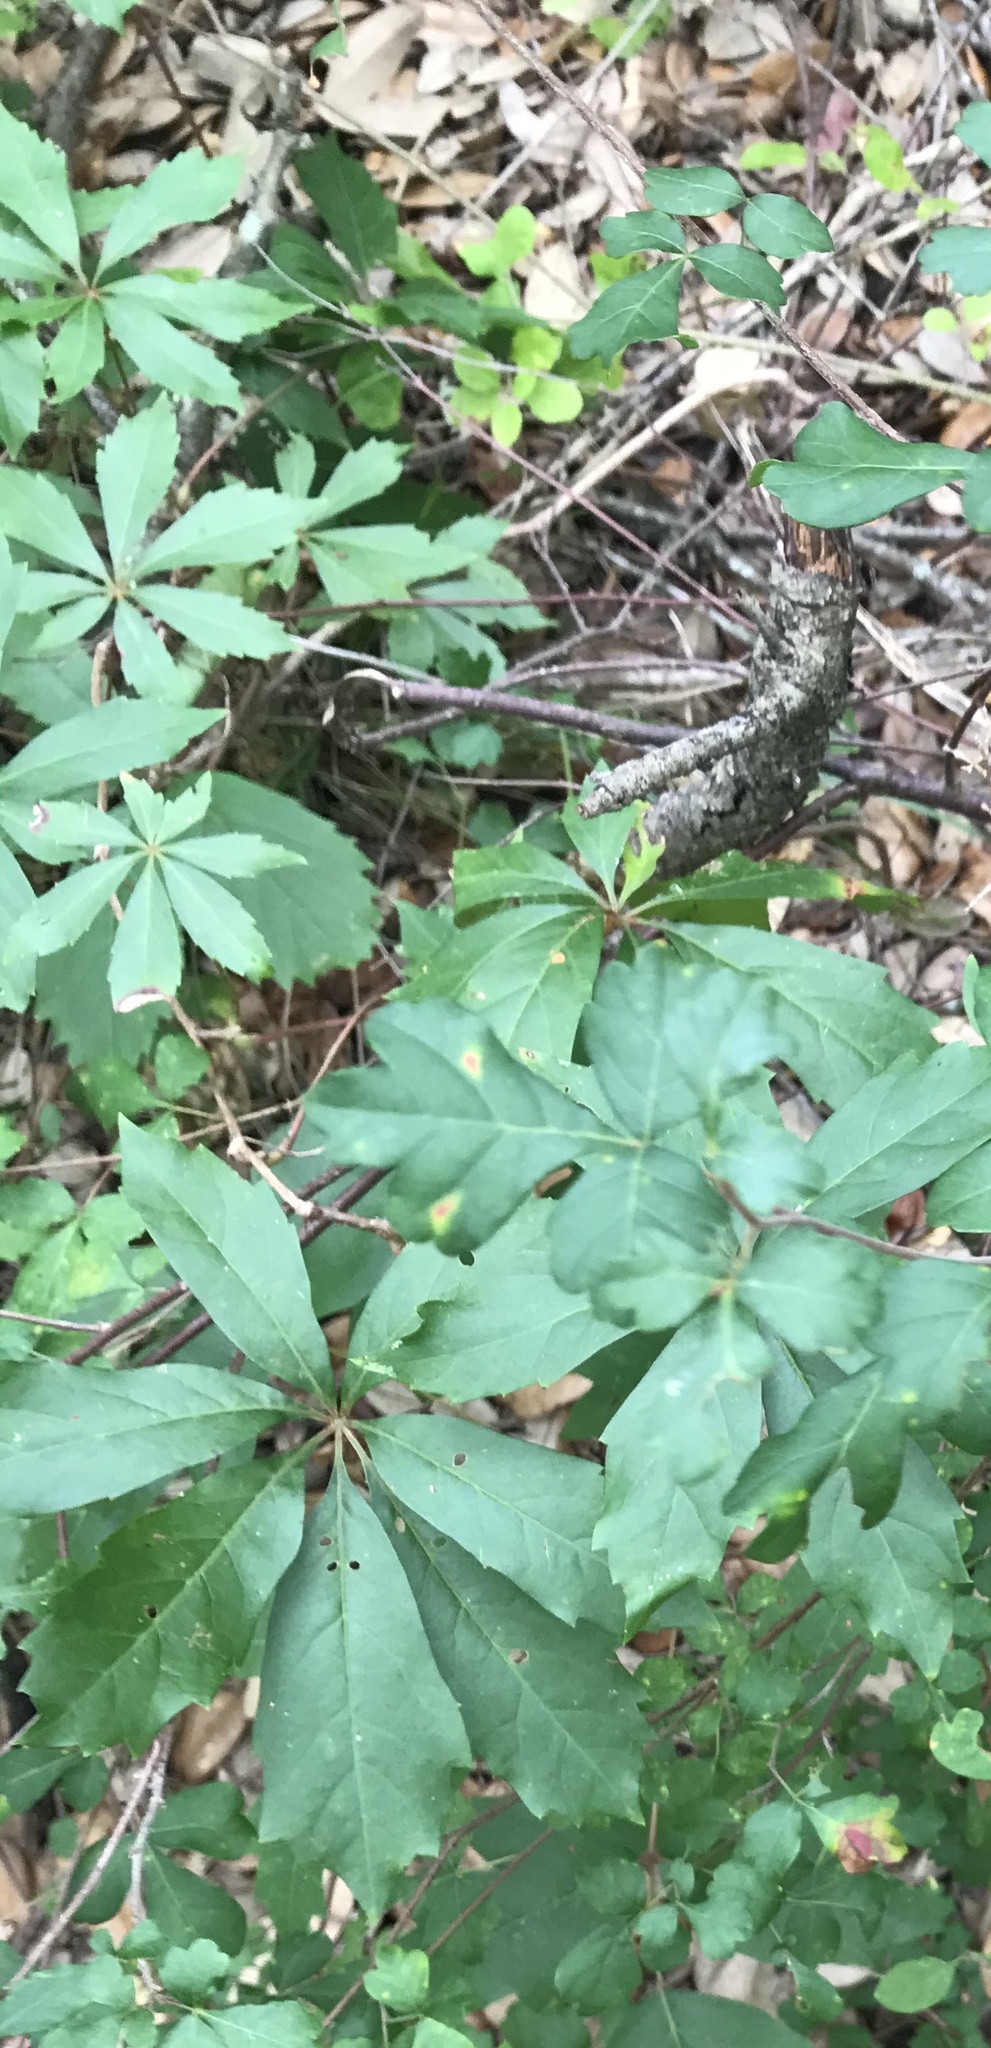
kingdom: Plantae
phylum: Tracheophyta
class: Magnoliopsida
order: Vitales
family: Vitaceae
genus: Parthenocissus
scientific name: Parthenocissus heptaphylla
